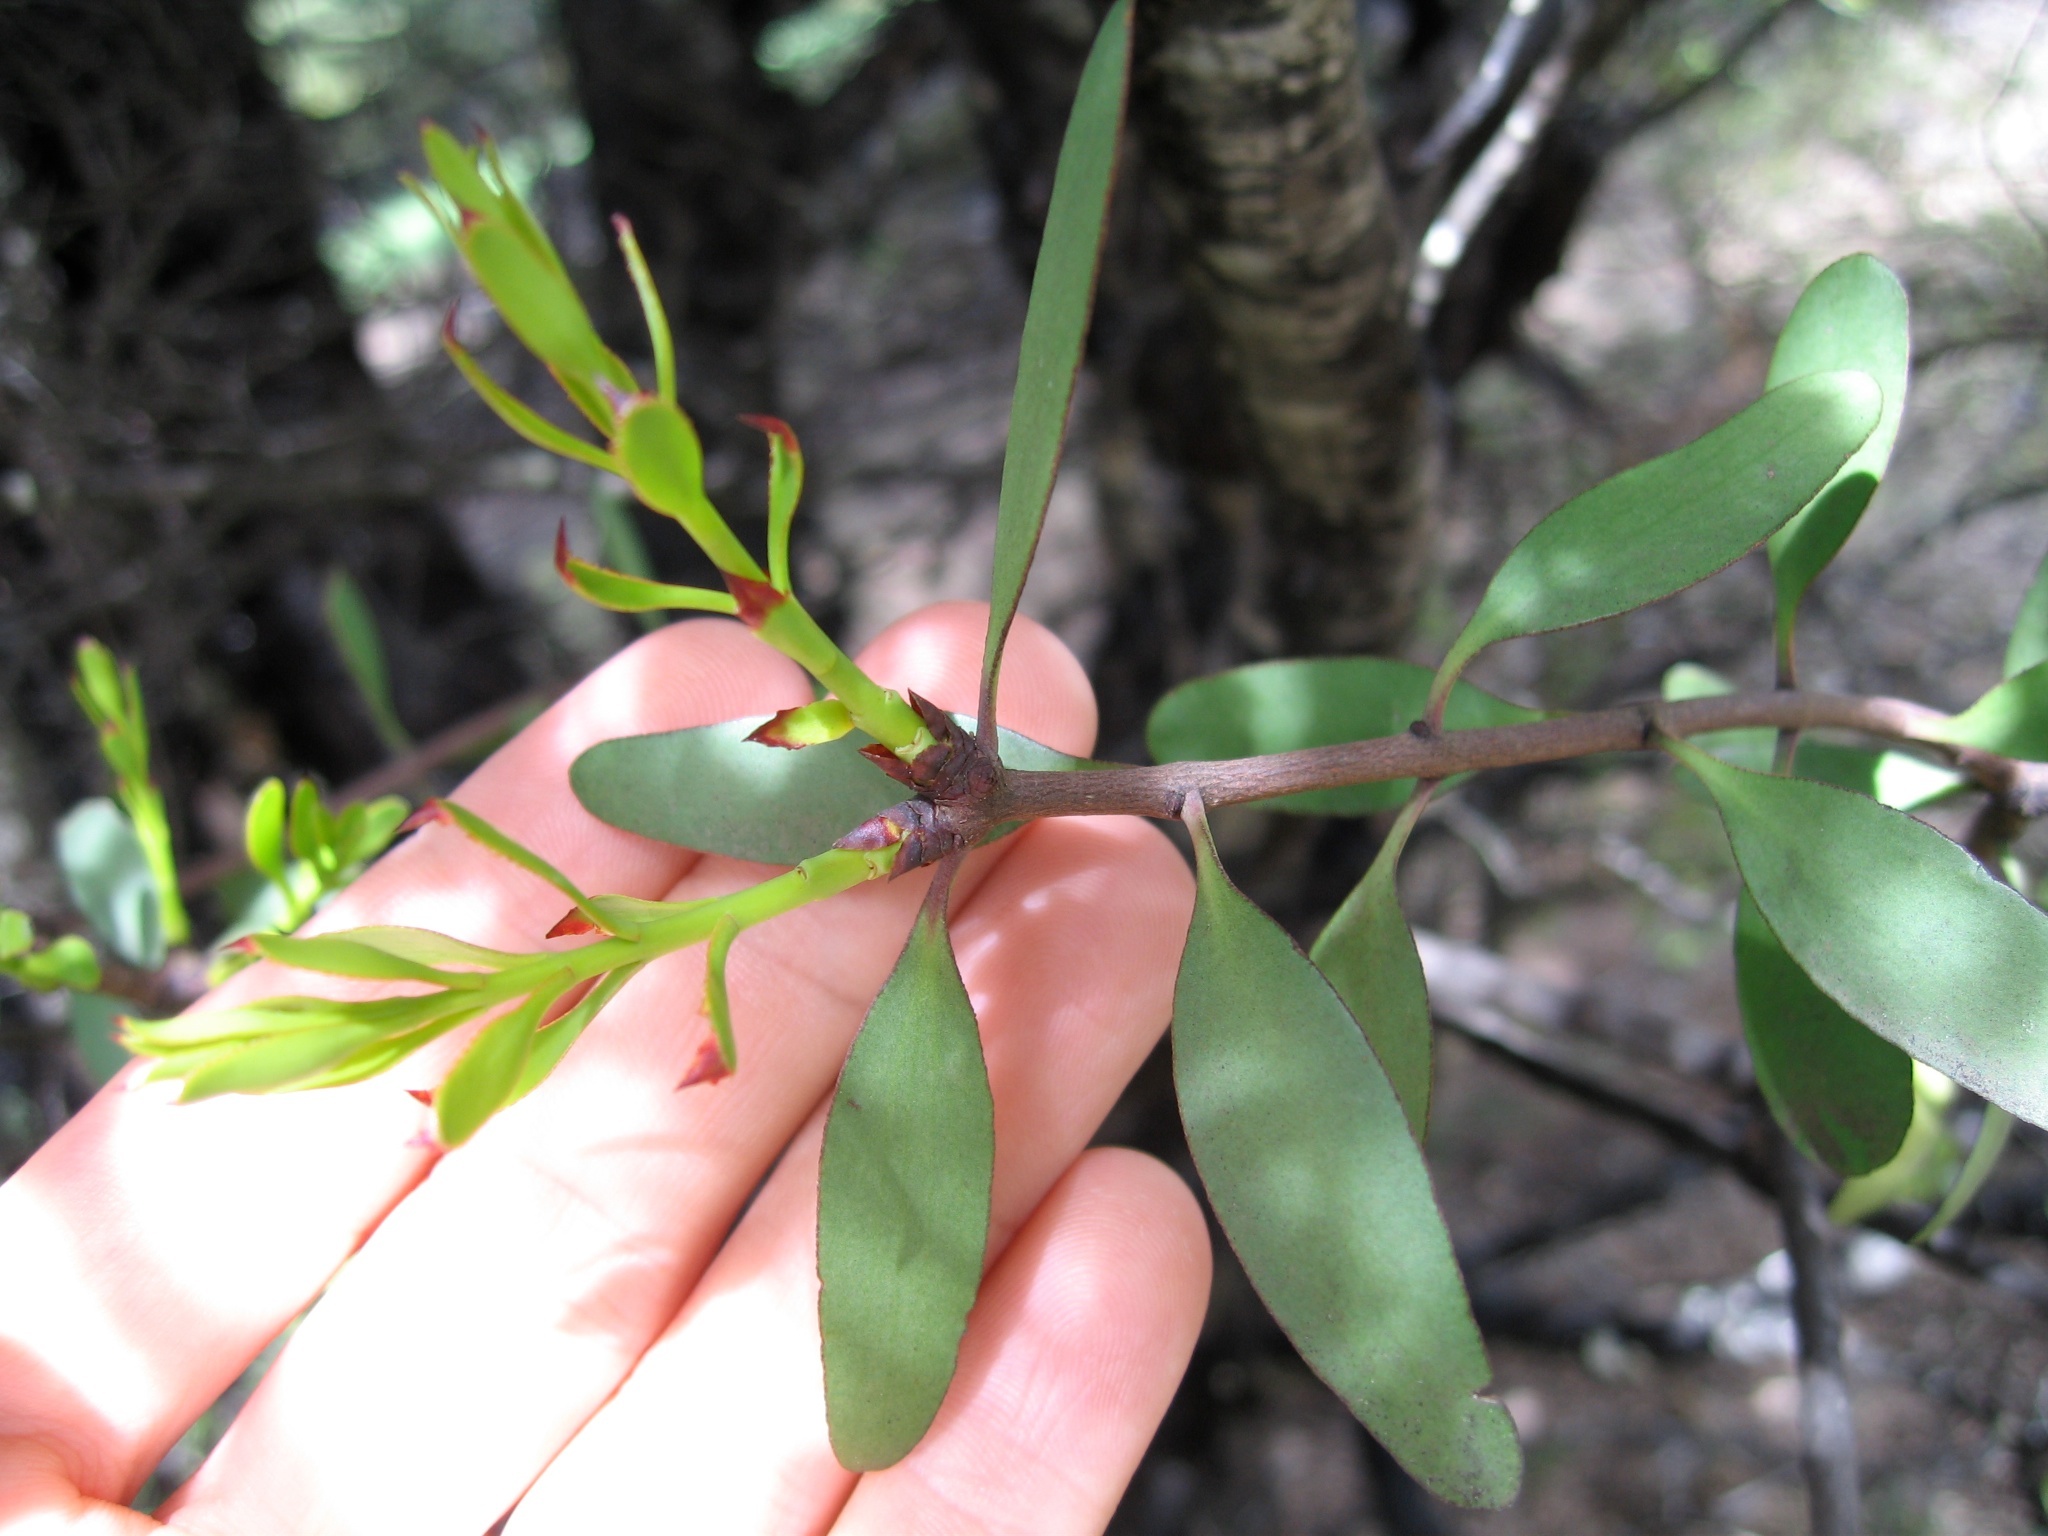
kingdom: Plantae
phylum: Tracheophyta
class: Magnoliopsida
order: Santalales
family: Loranthaceae
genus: Alepis
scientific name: Alepis flavida
